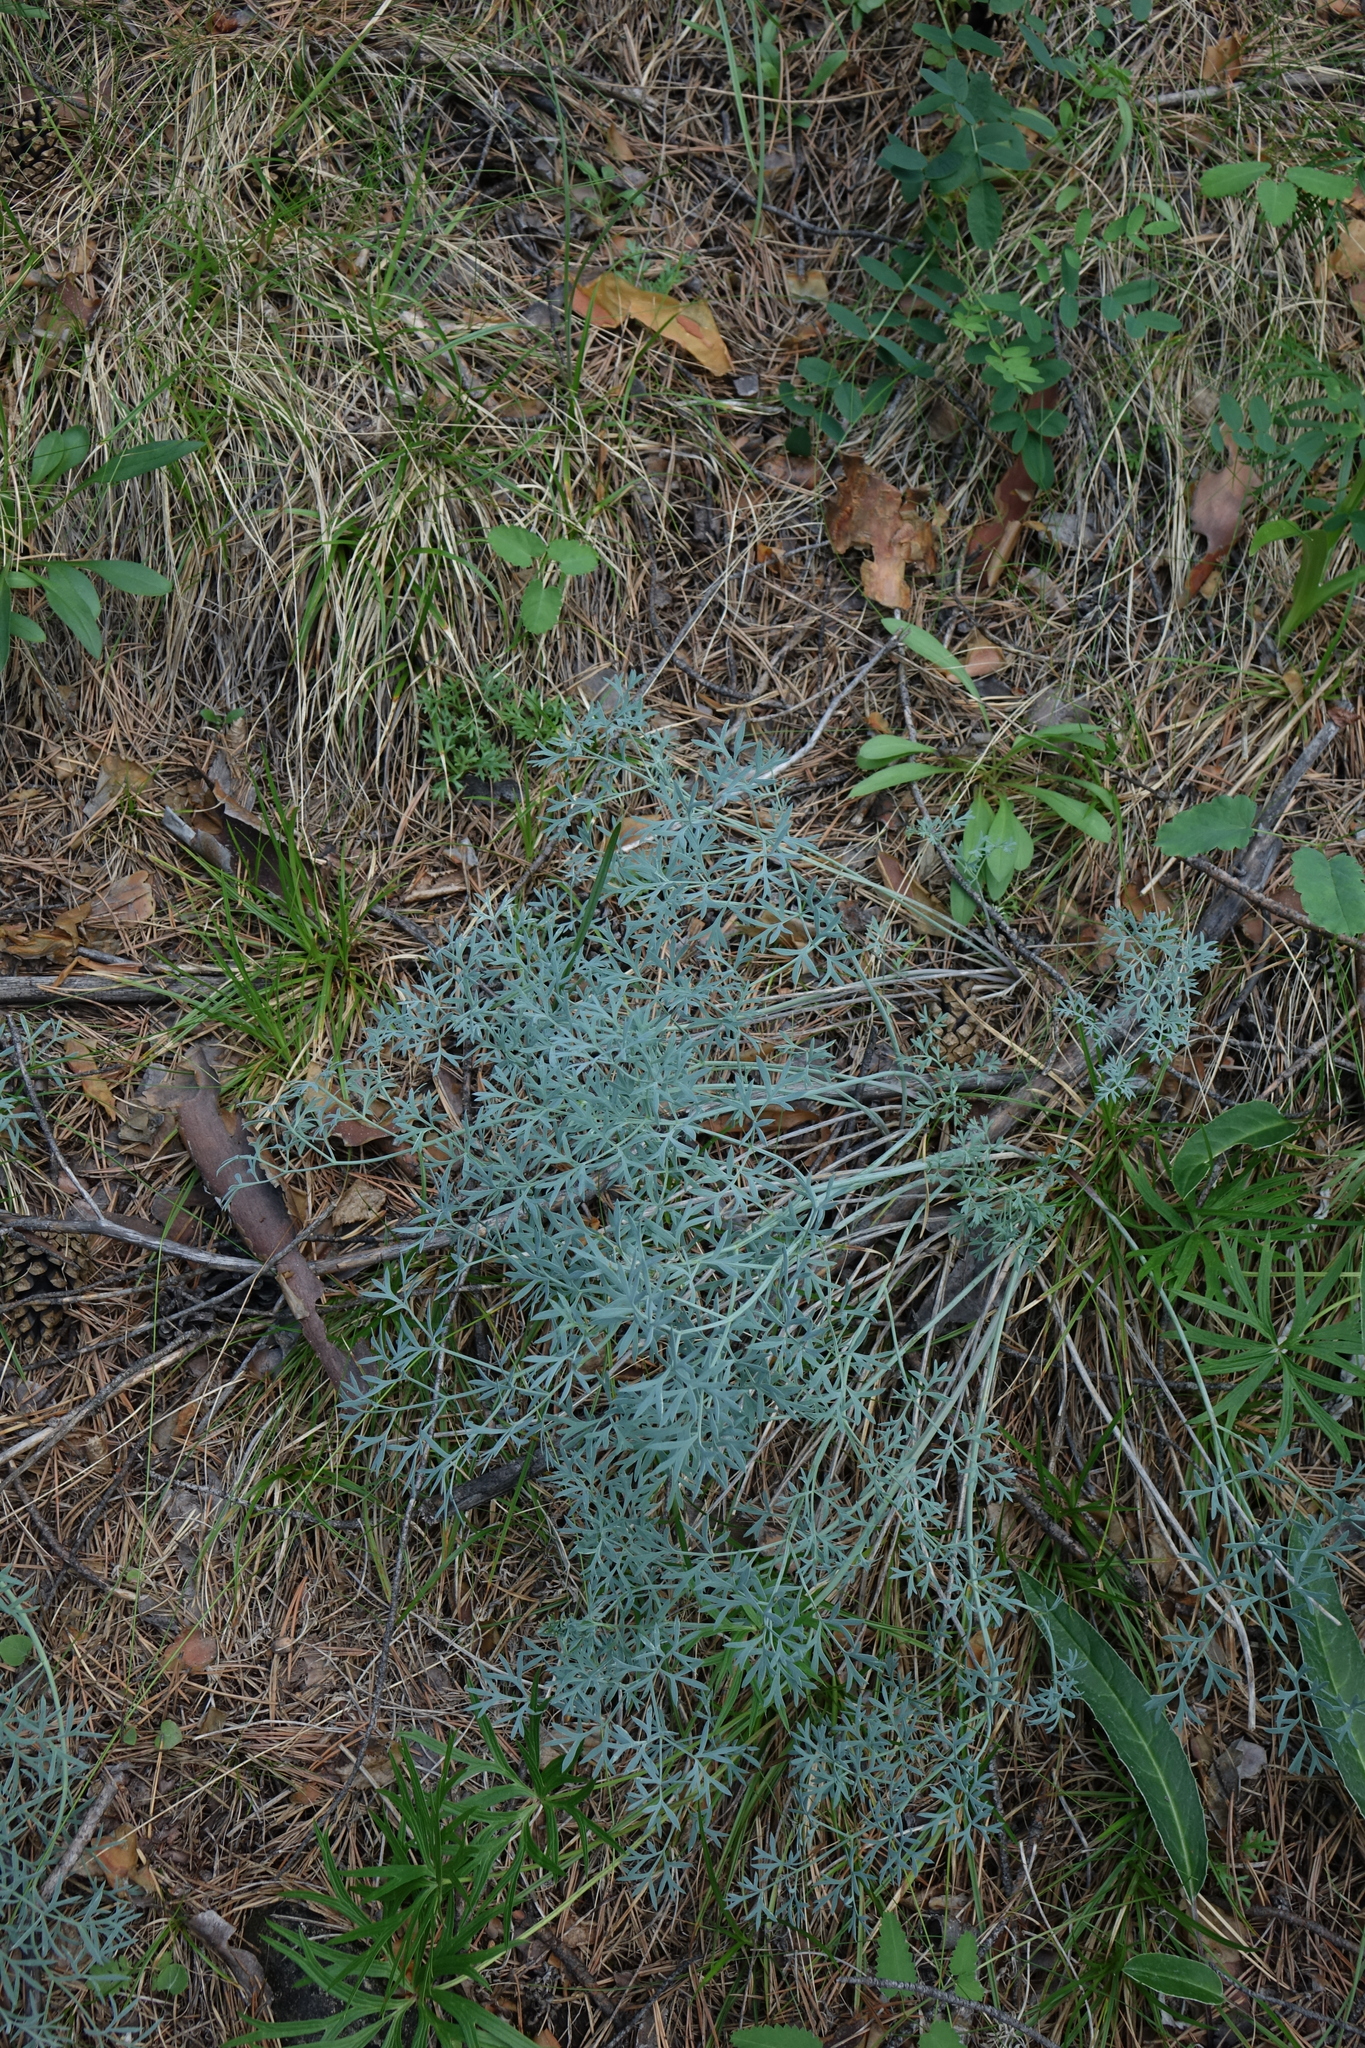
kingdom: Plantae
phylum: Tracheophyta
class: Magnoliopsida
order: Apiales
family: Apiaceae
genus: Phlojodicarpus
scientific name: Phlojodicarpus sibiricus
